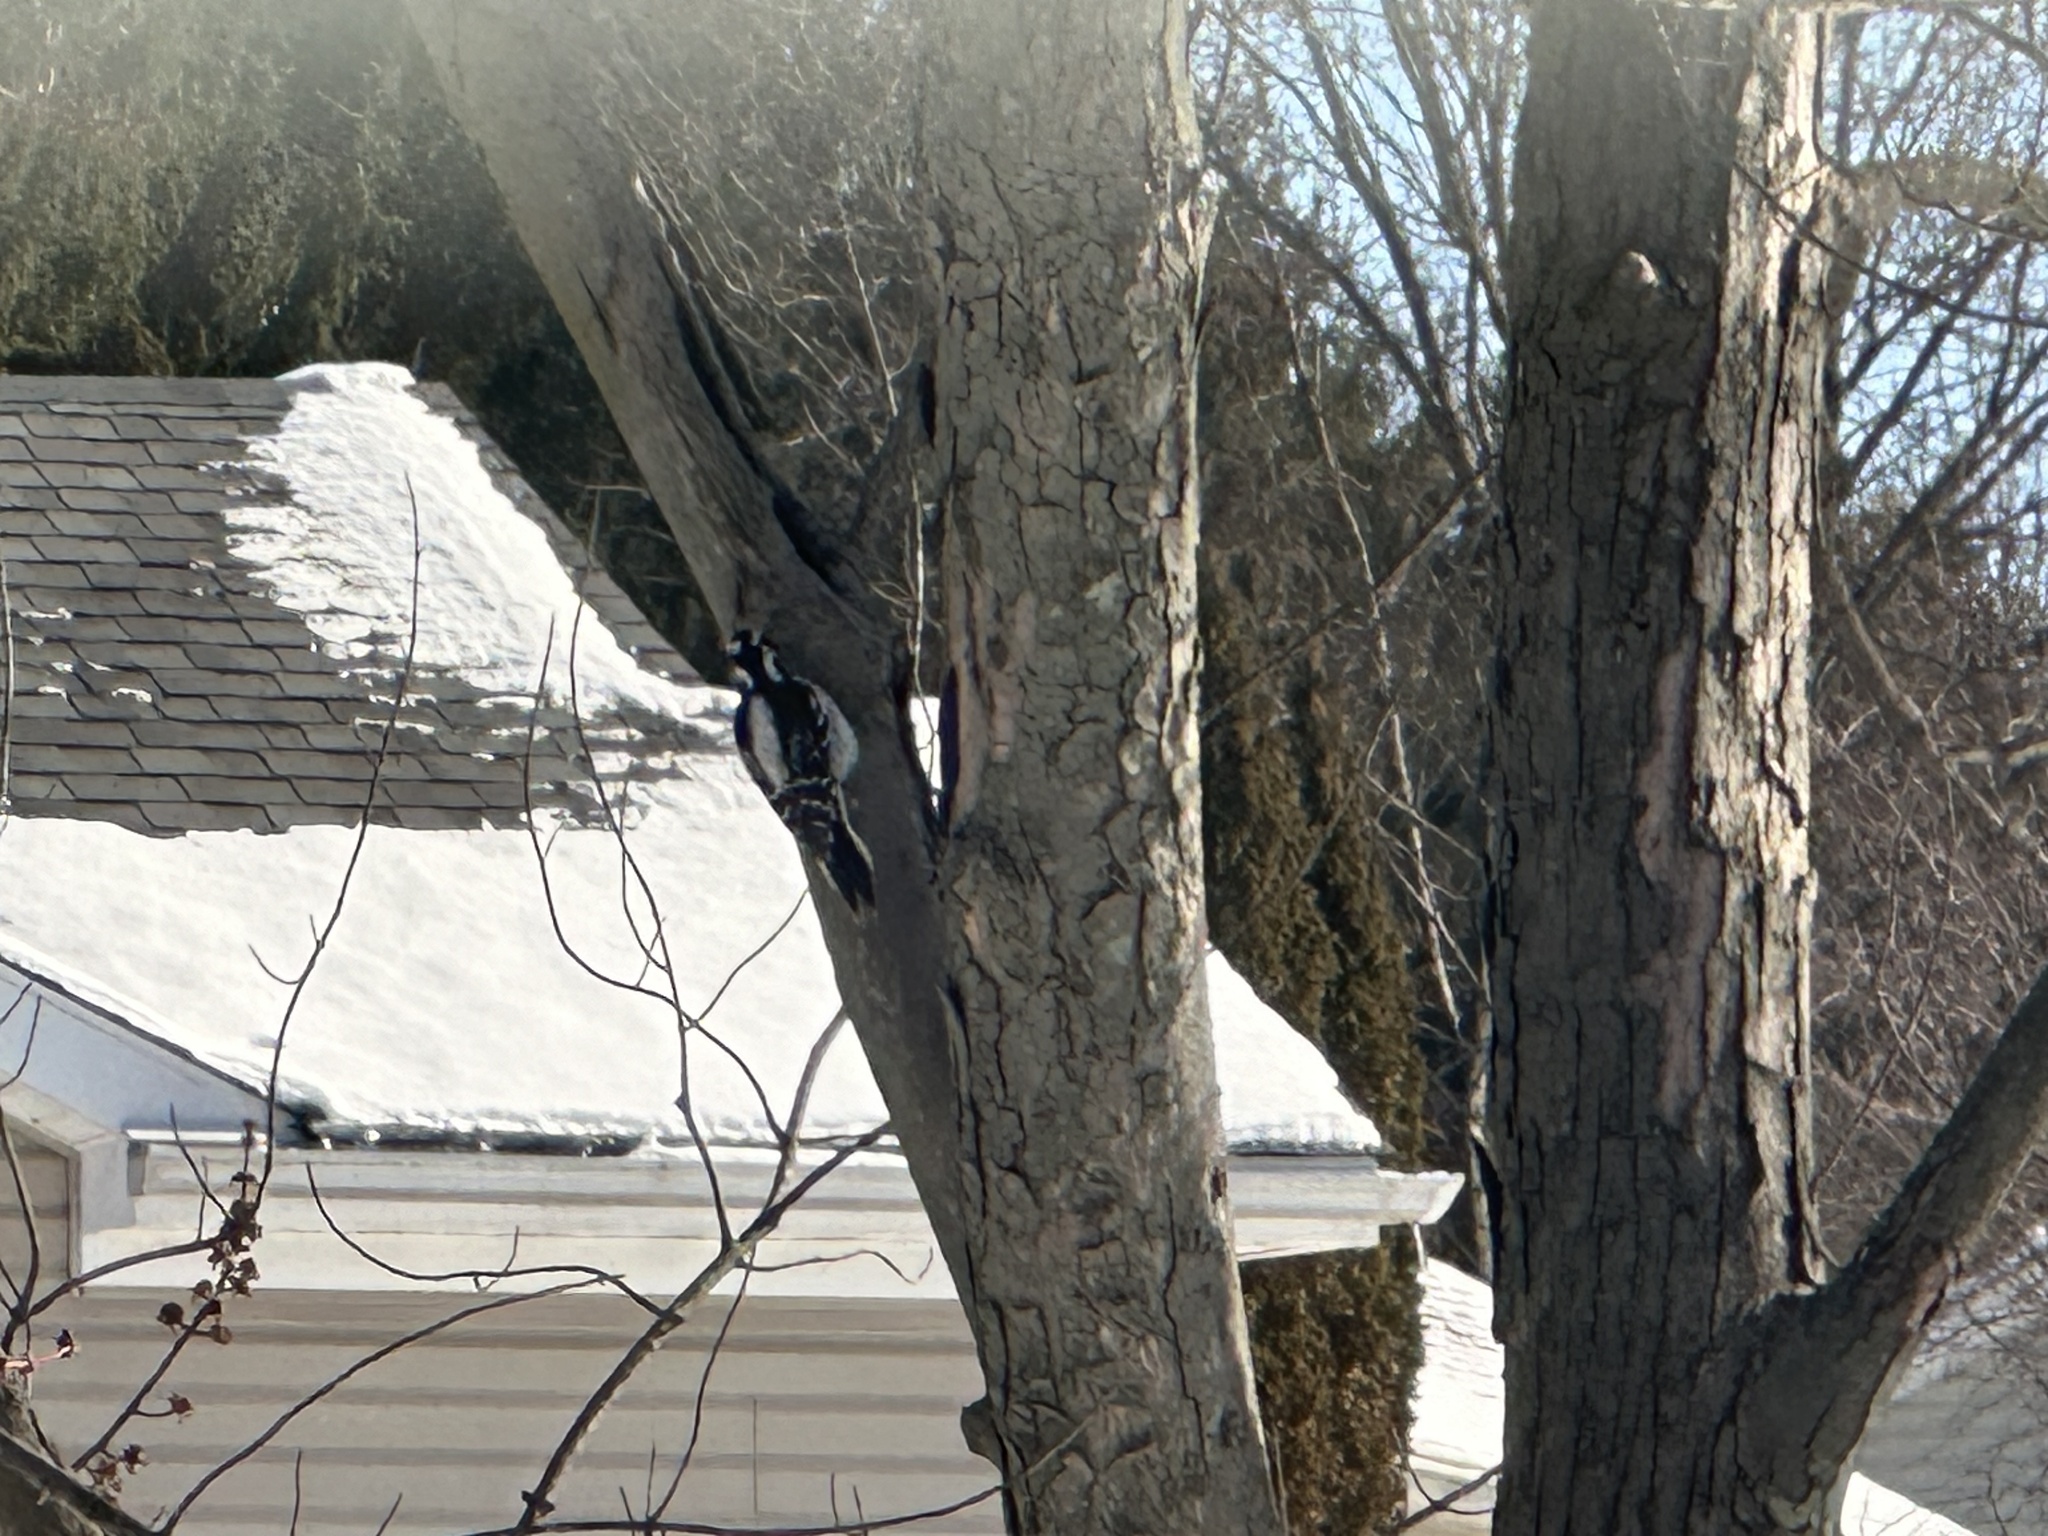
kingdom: Animalia
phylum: Chordata
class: Aves
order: Piciformes
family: Picidae
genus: Leuconotopicus
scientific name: Leuconotopicus villosus
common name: Hairy woodpecker
